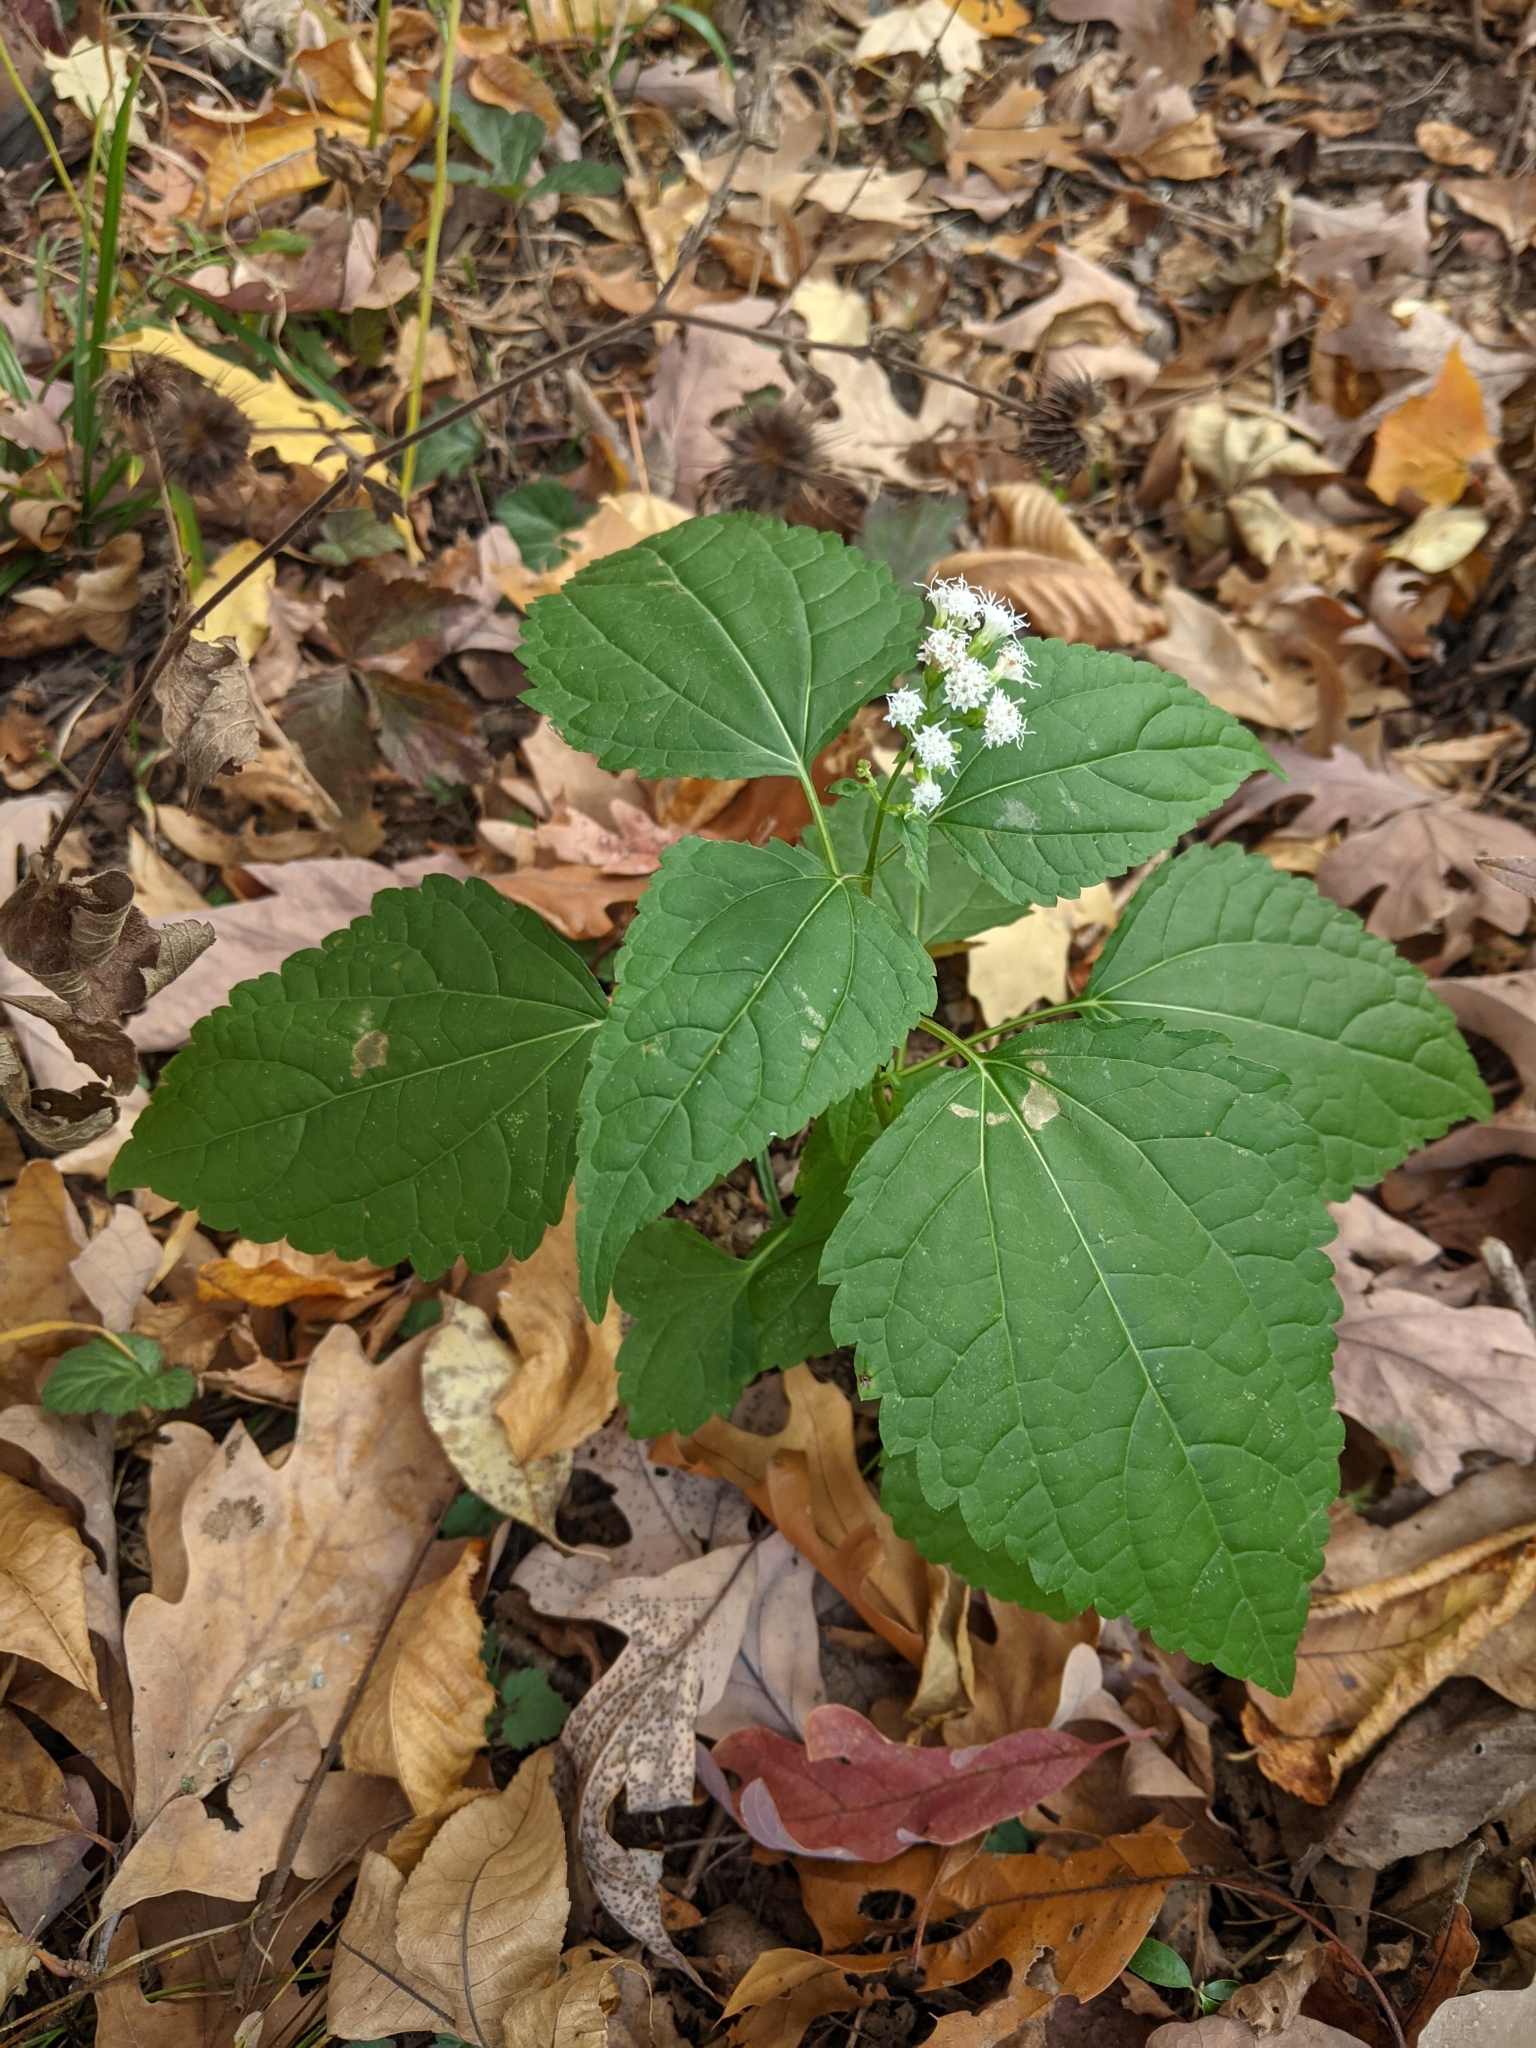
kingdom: Plantae
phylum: Tracheophyta
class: Magnoliopsida
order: Asterales
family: Asteraceae
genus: Ageratina
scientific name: Ageratina altissima
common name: White snakeroot
